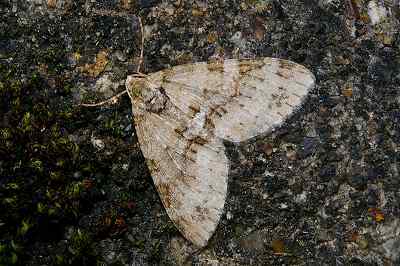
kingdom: Animalia
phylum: Arthropoda
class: Insecta
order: Lepidoptera
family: Geometridae
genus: Trichopterigia
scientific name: Trichopterigia consobrinaria
